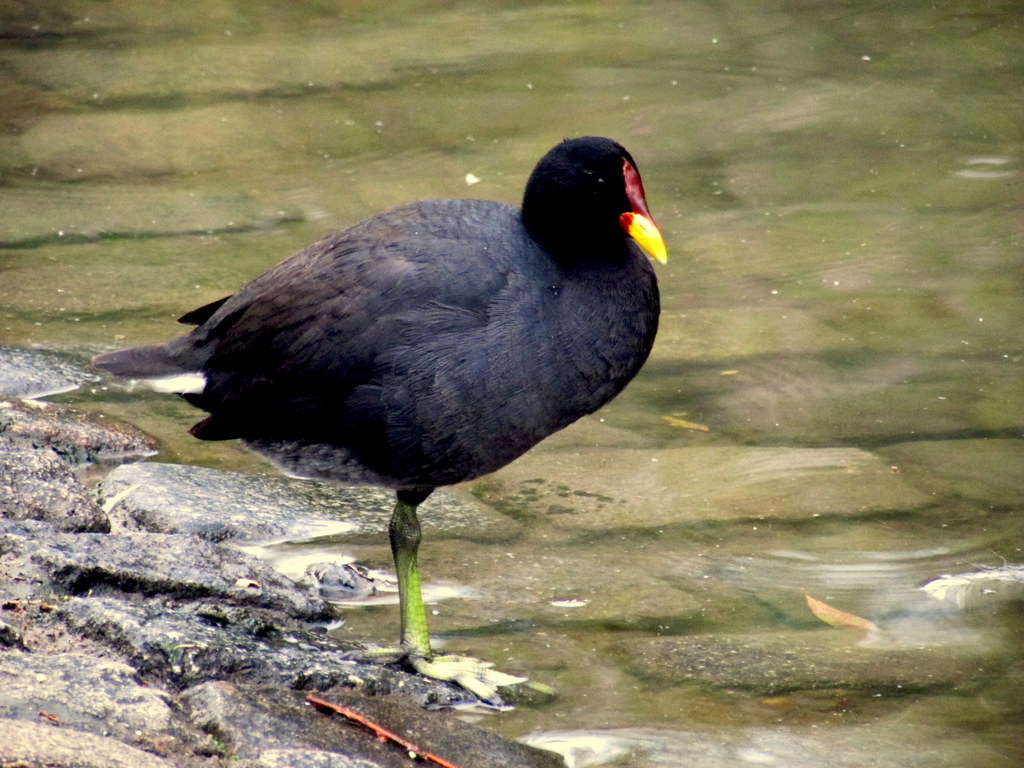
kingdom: Animalia
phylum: Chordata
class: Aves
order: Gruiformes
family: Rallidae
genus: Fulica
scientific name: Fulica rufifrons
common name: Red-fronted coot
